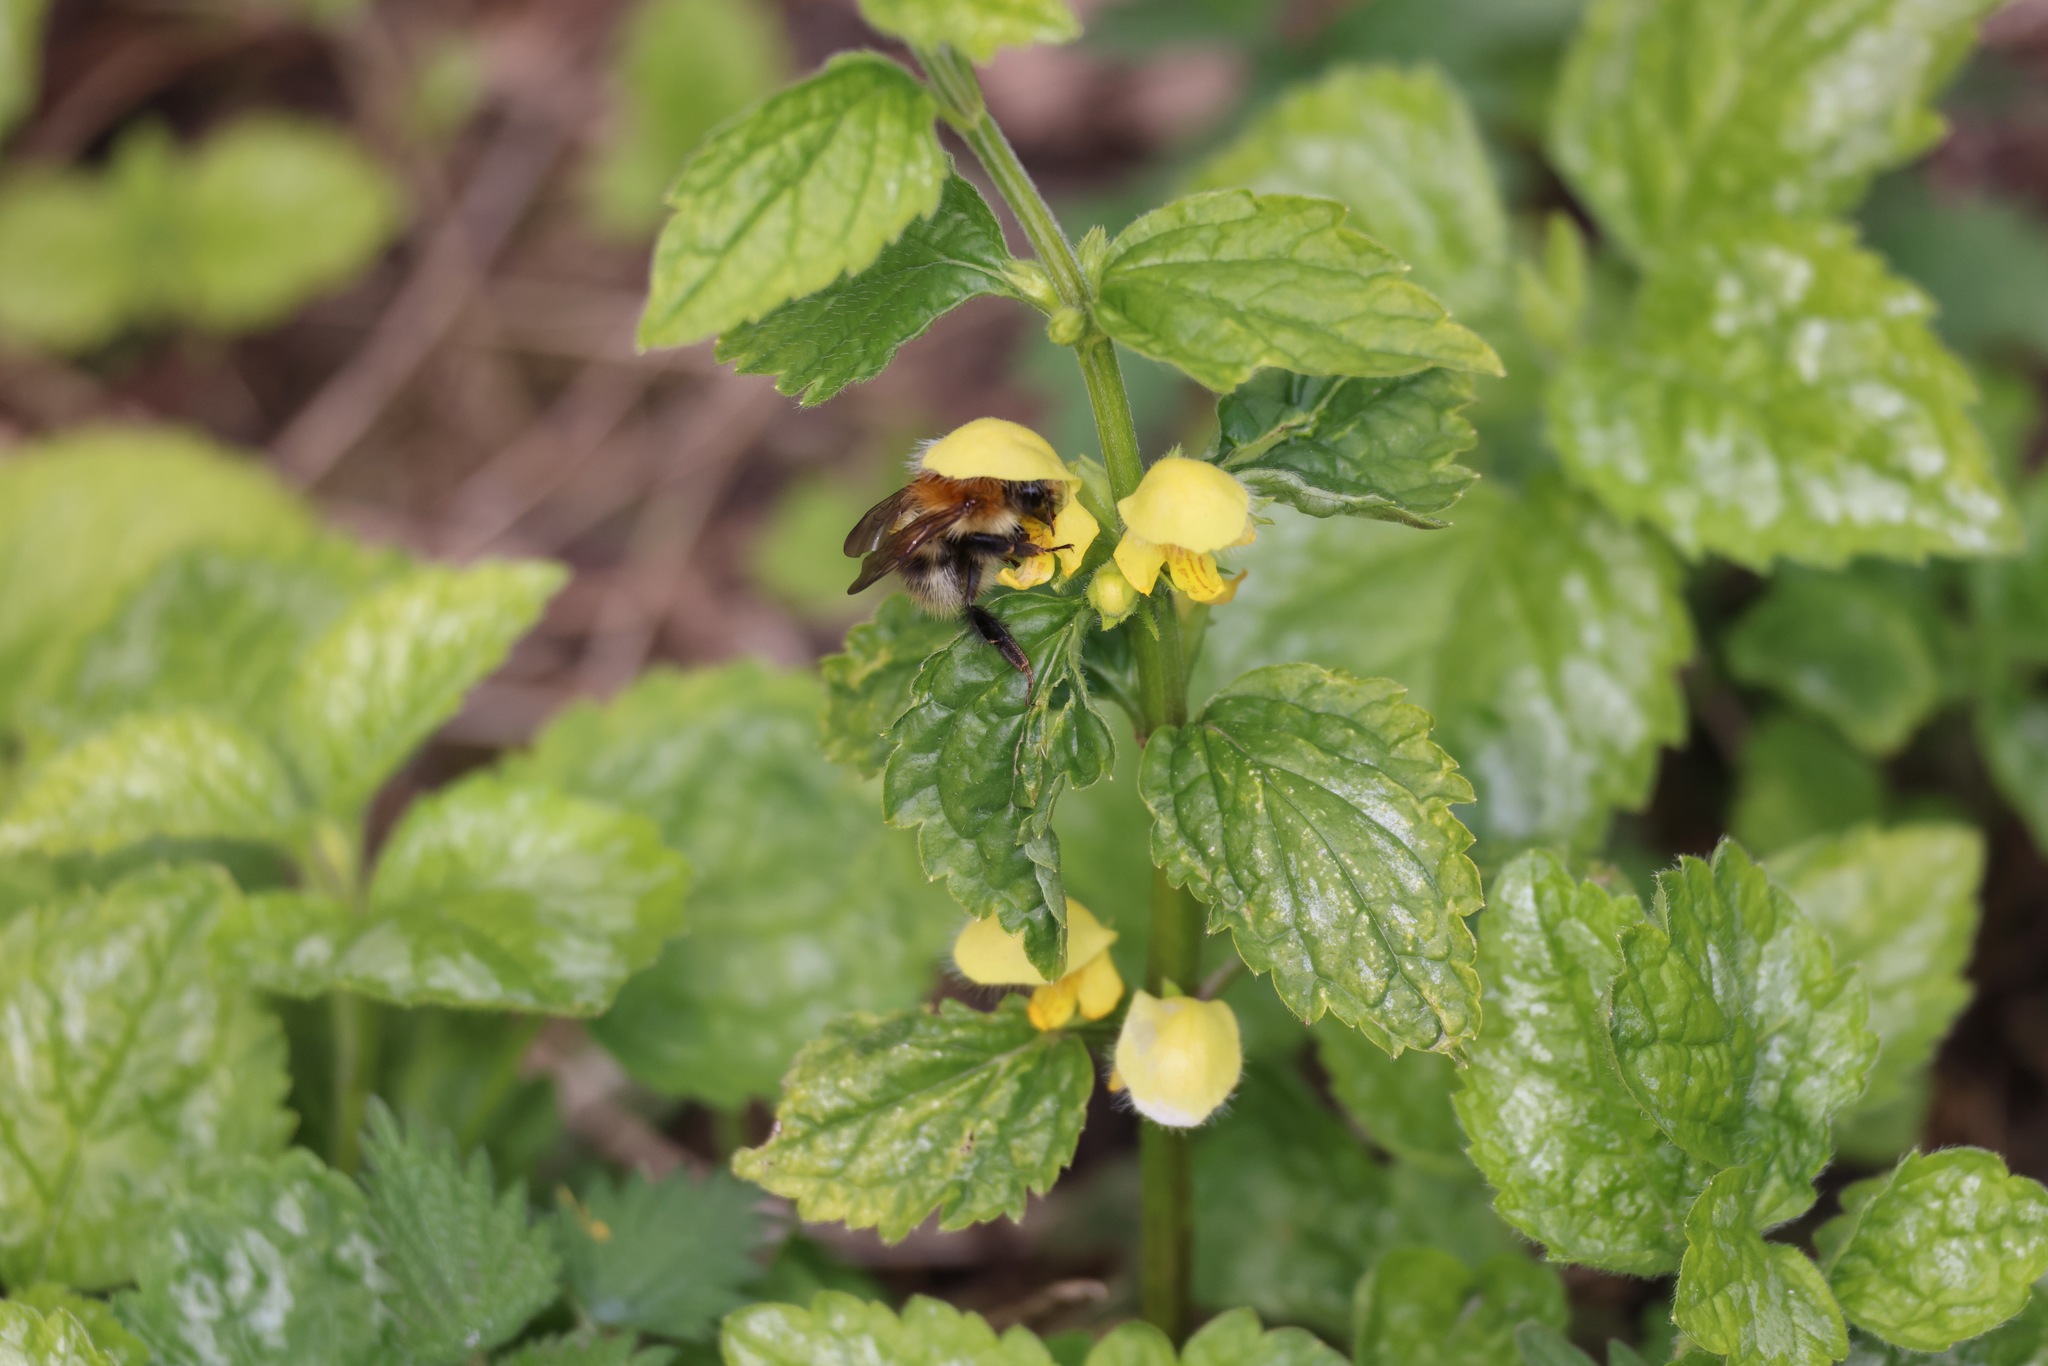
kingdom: Animalia
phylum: Arthropoda
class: Insecta
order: Hymenoptera
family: Apidae
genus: Bombus
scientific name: Bombus pascuorum
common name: Common carder bee
